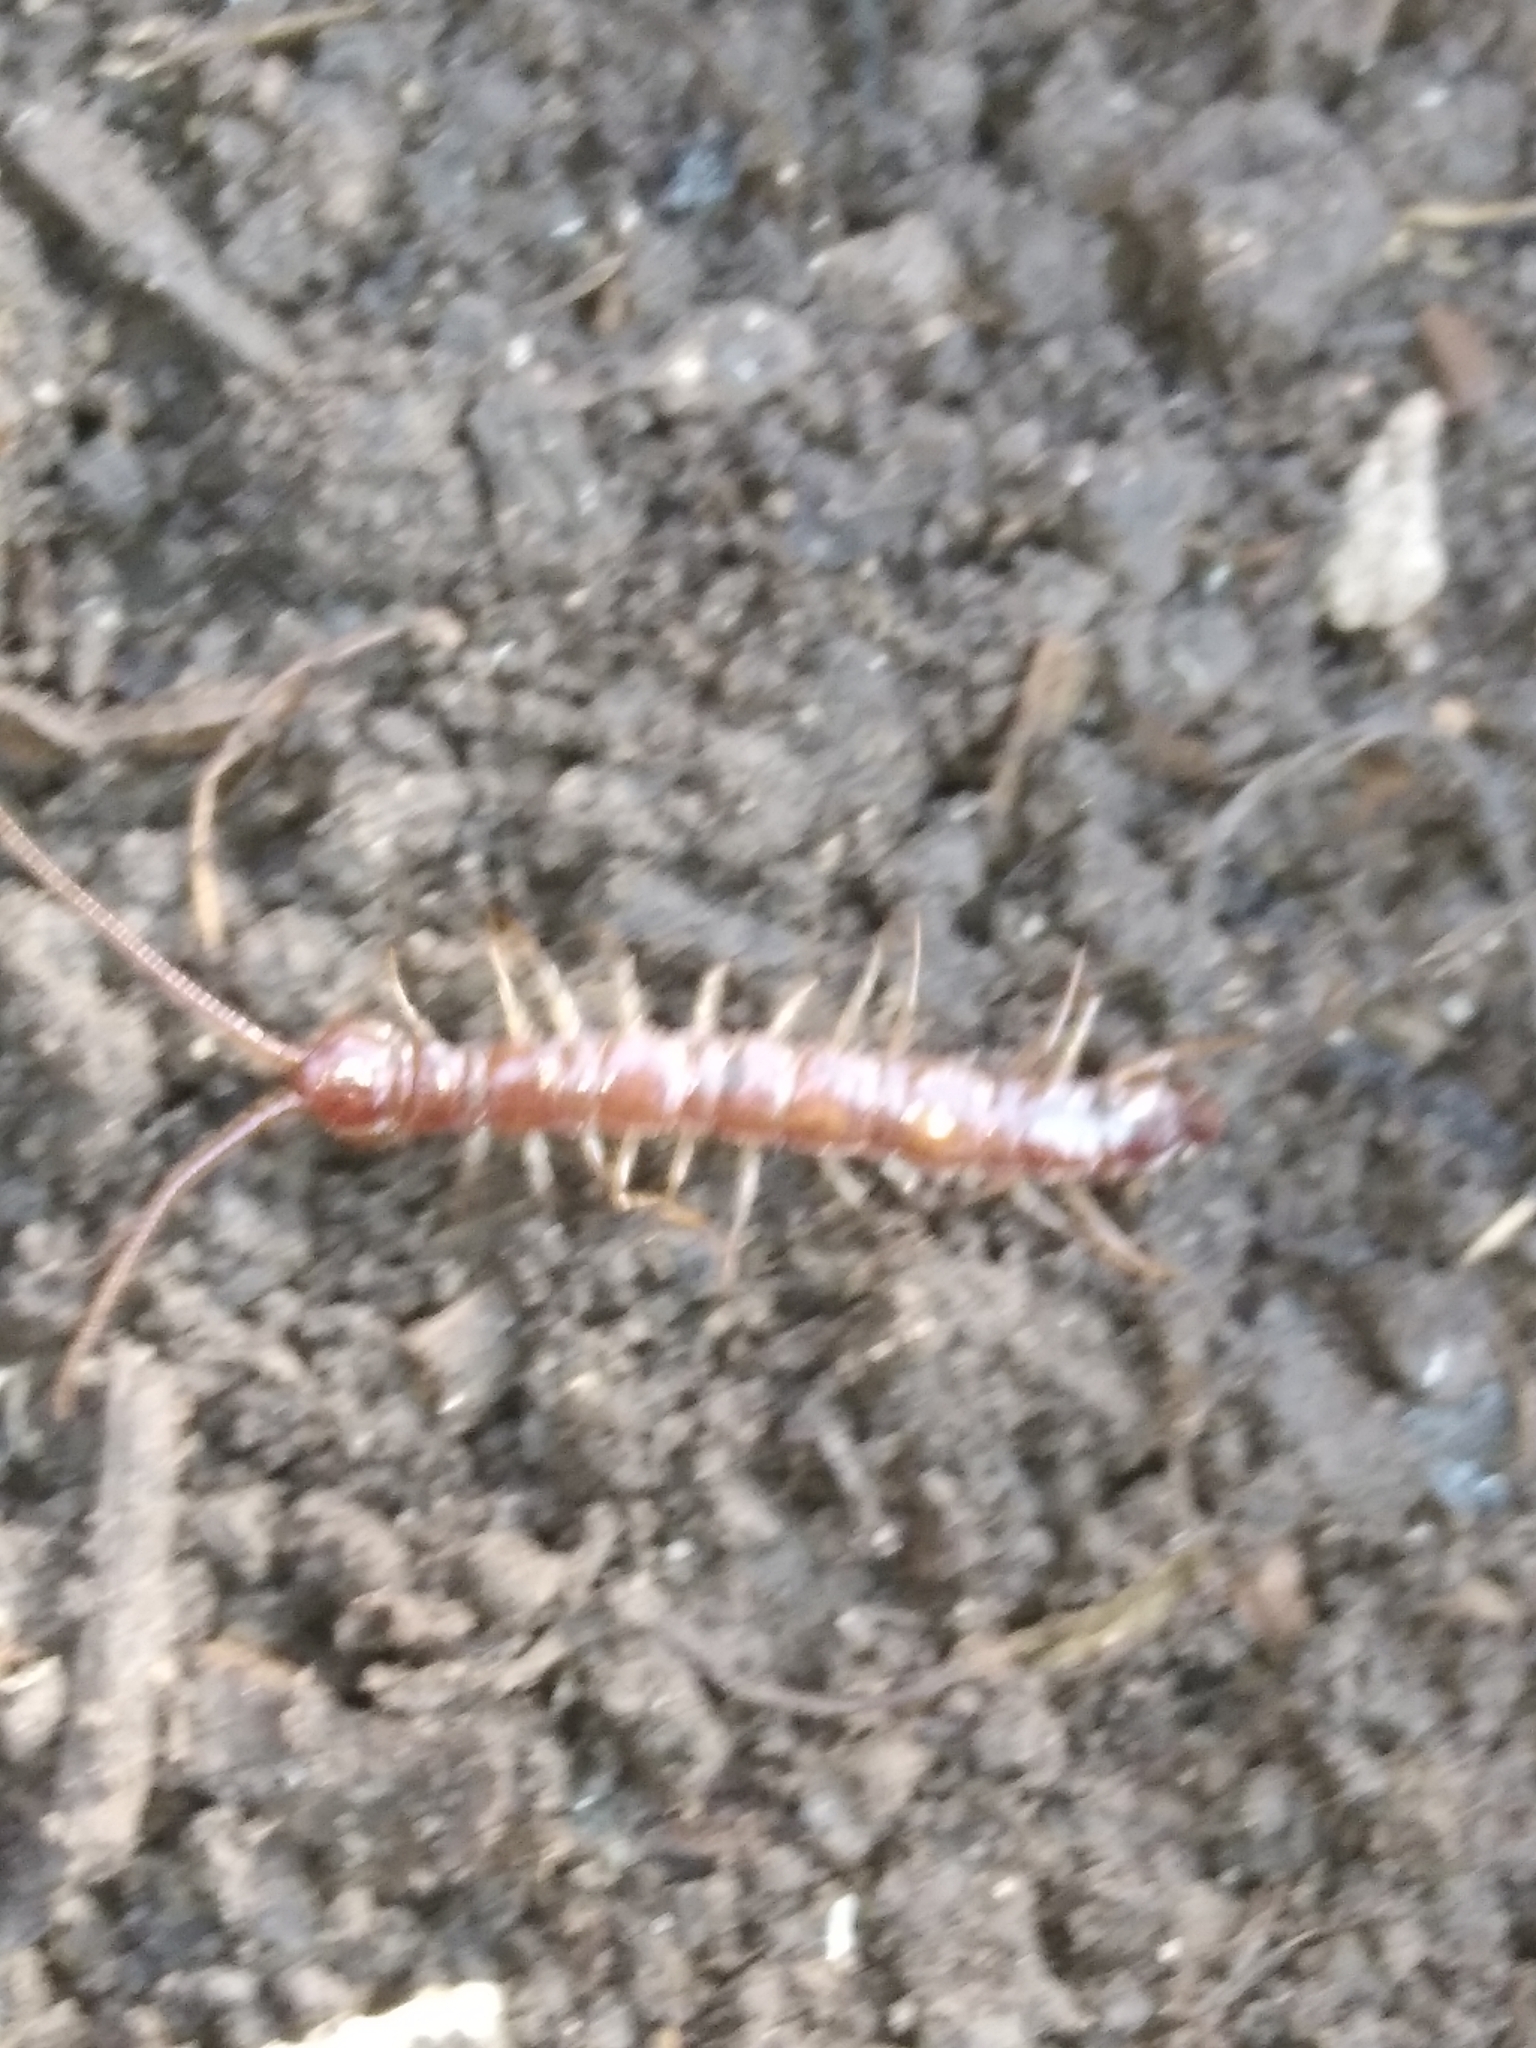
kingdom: Animalia
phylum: Arthropoda
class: Chilopoda
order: Lithobiomorpha
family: Lithobiidae
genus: Lithobius
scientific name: Lithobius forficatus
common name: Centipede
